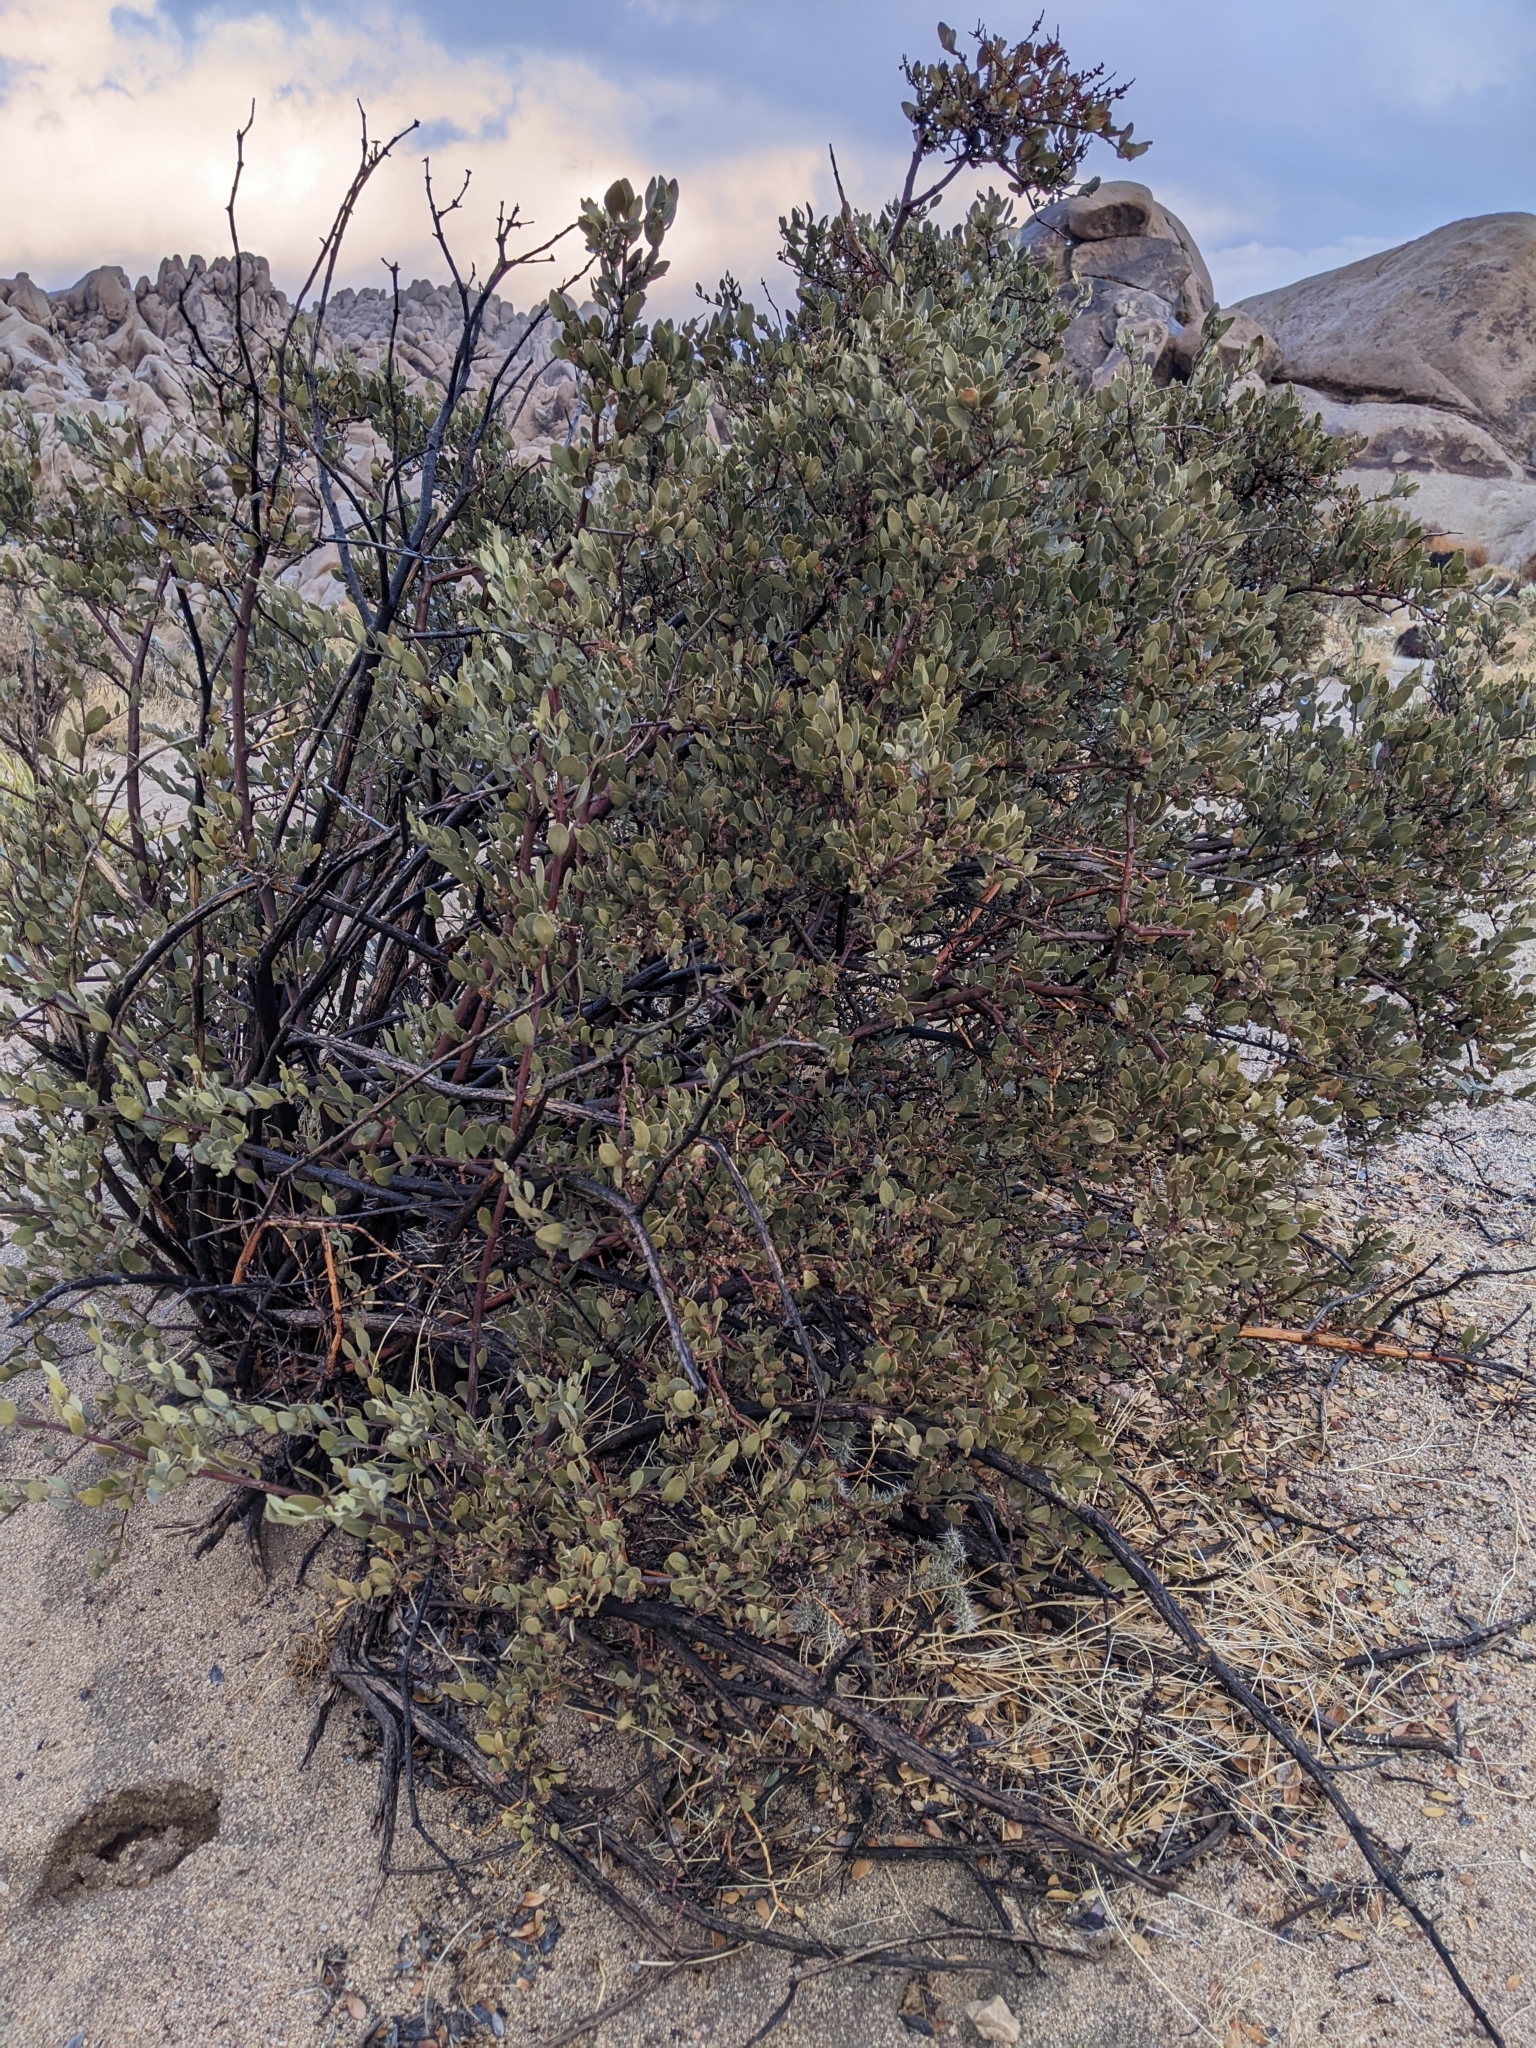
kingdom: Plantae
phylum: Tracheophyta
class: Magnoliopsida
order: Caryophyllales
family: Simmondsiaceae
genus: Simmondsia
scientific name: Simmondsia chinensis
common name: Jojoba
